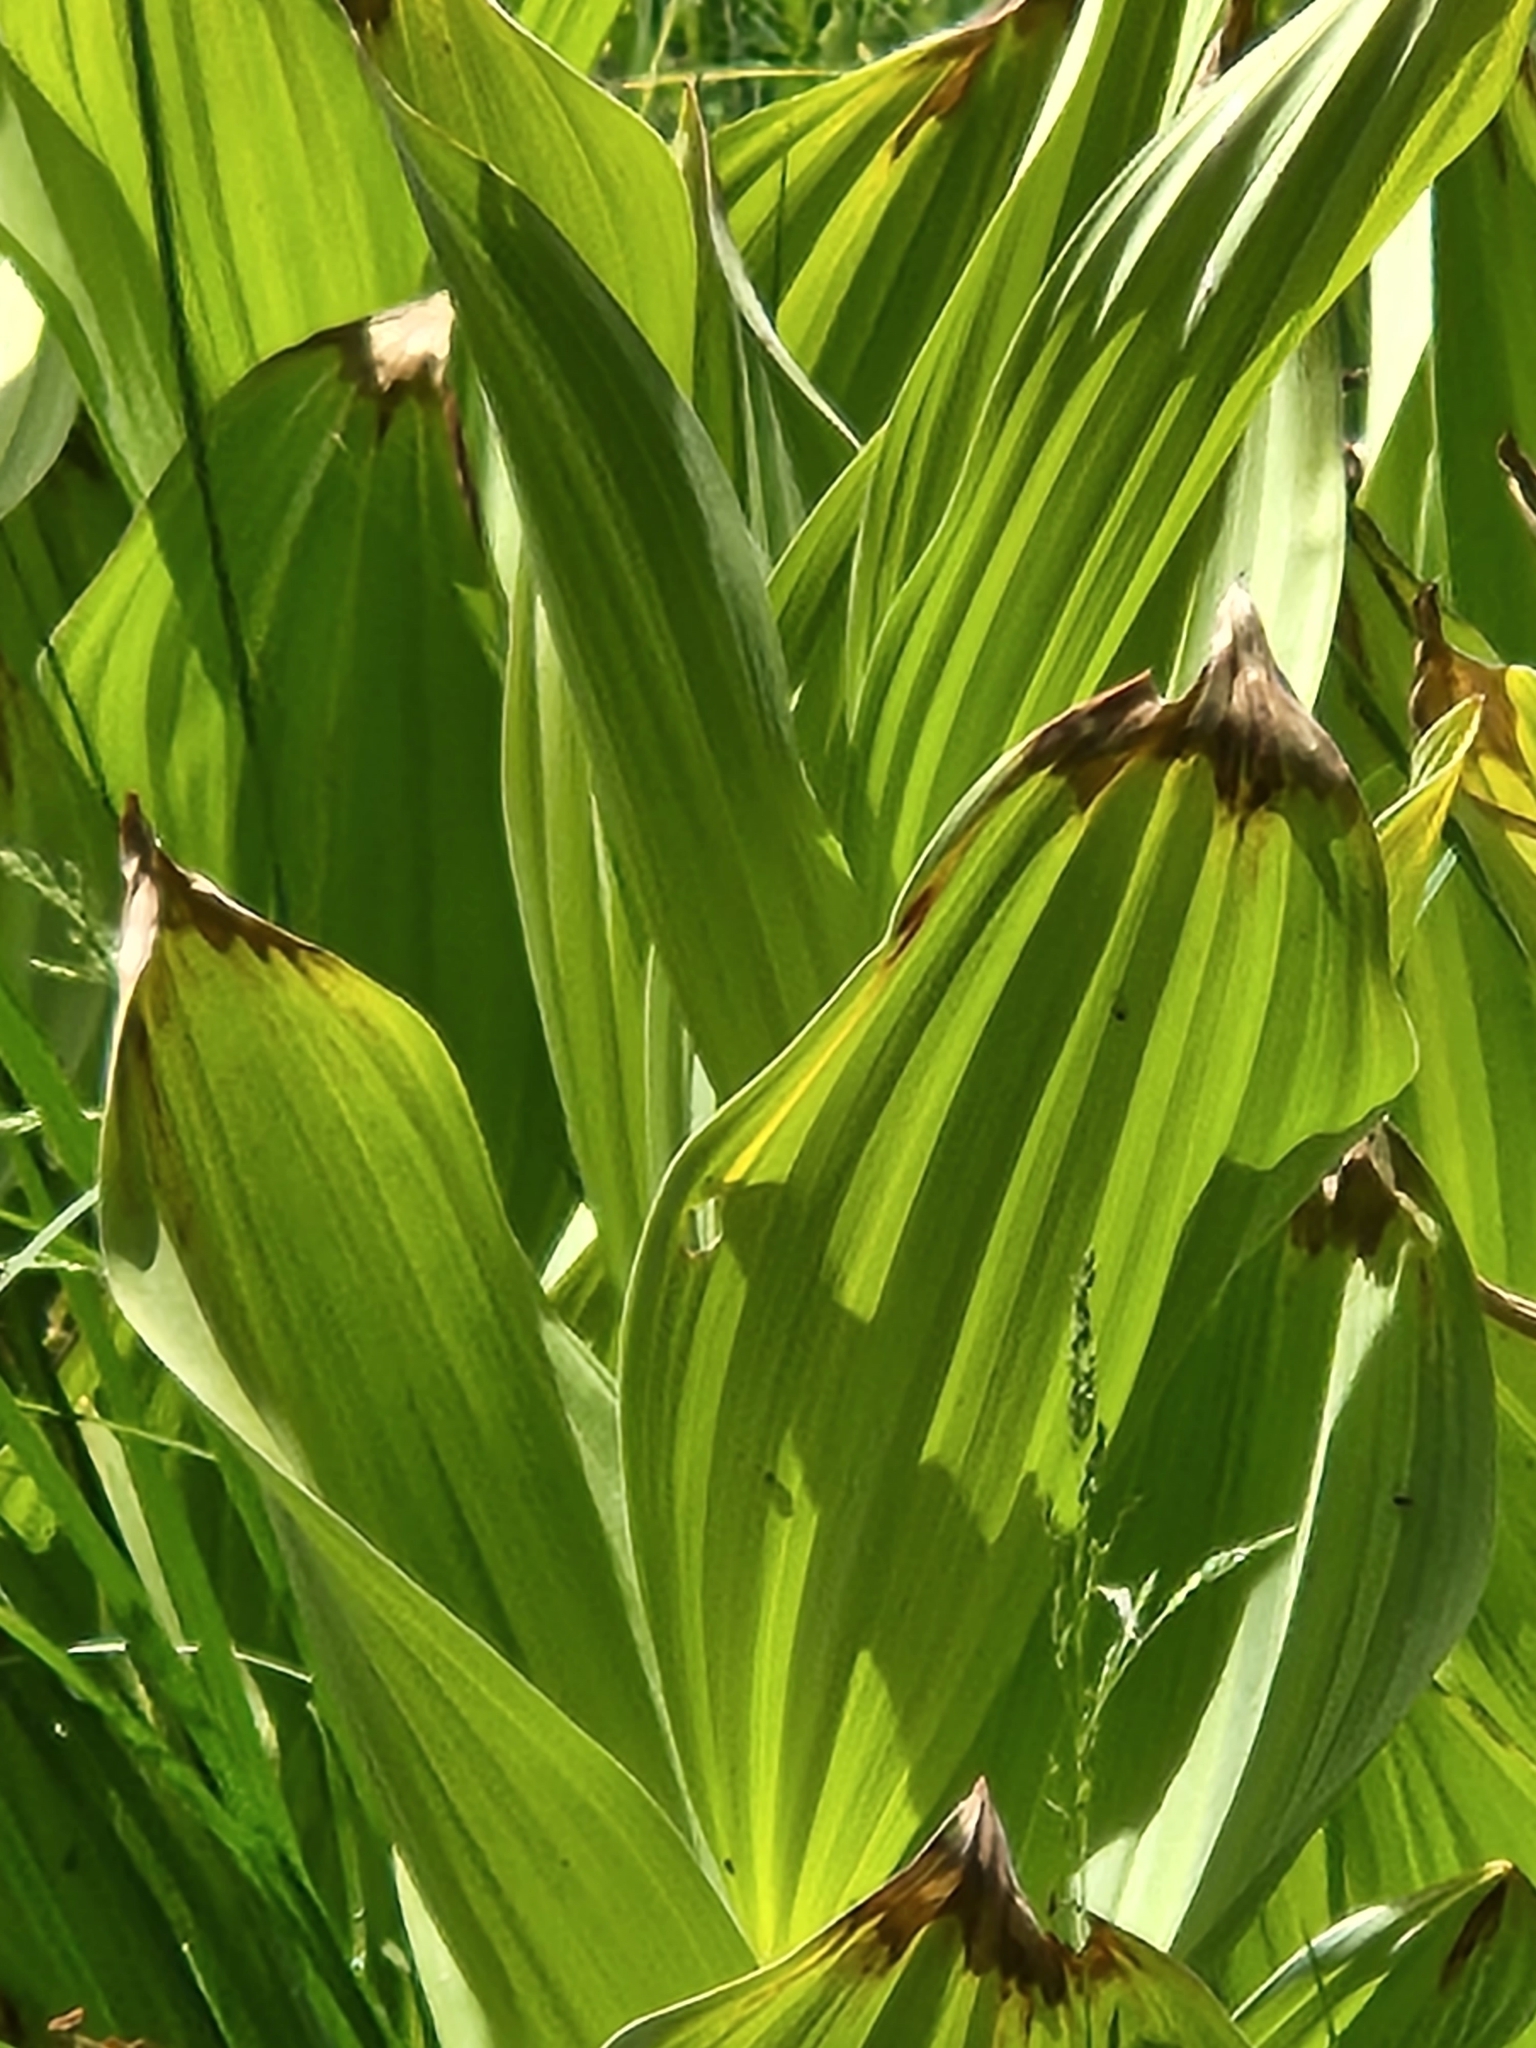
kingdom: Plantae
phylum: Tracheophyta
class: Liliopsida
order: Liliales
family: Melanthiaceae
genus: Veratrum
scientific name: Veratrum californicum
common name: California veratrum
